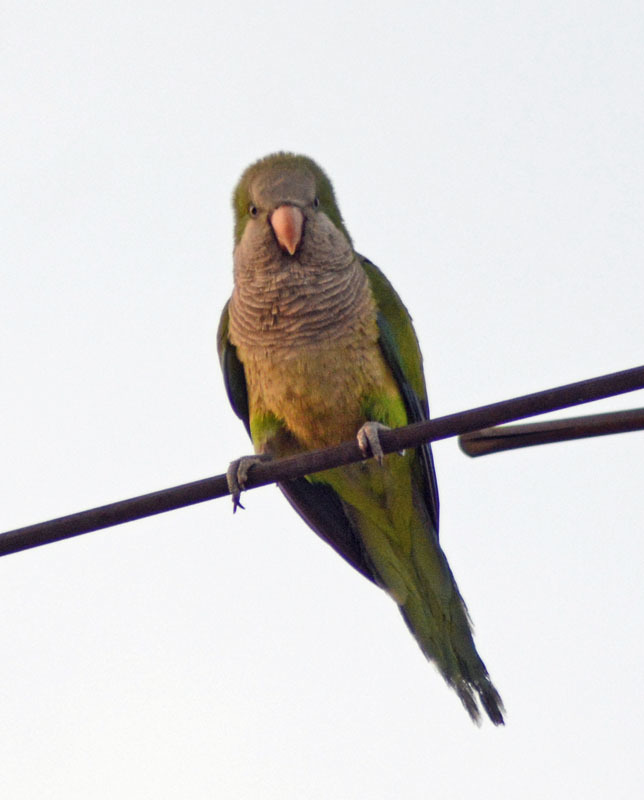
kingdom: Animalia
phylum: Chordata
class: Aves
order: Psittaciformes
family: Psittacidae
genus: Myiopsitta
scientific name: Myiopsitta monachus
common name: Monk parakeet
